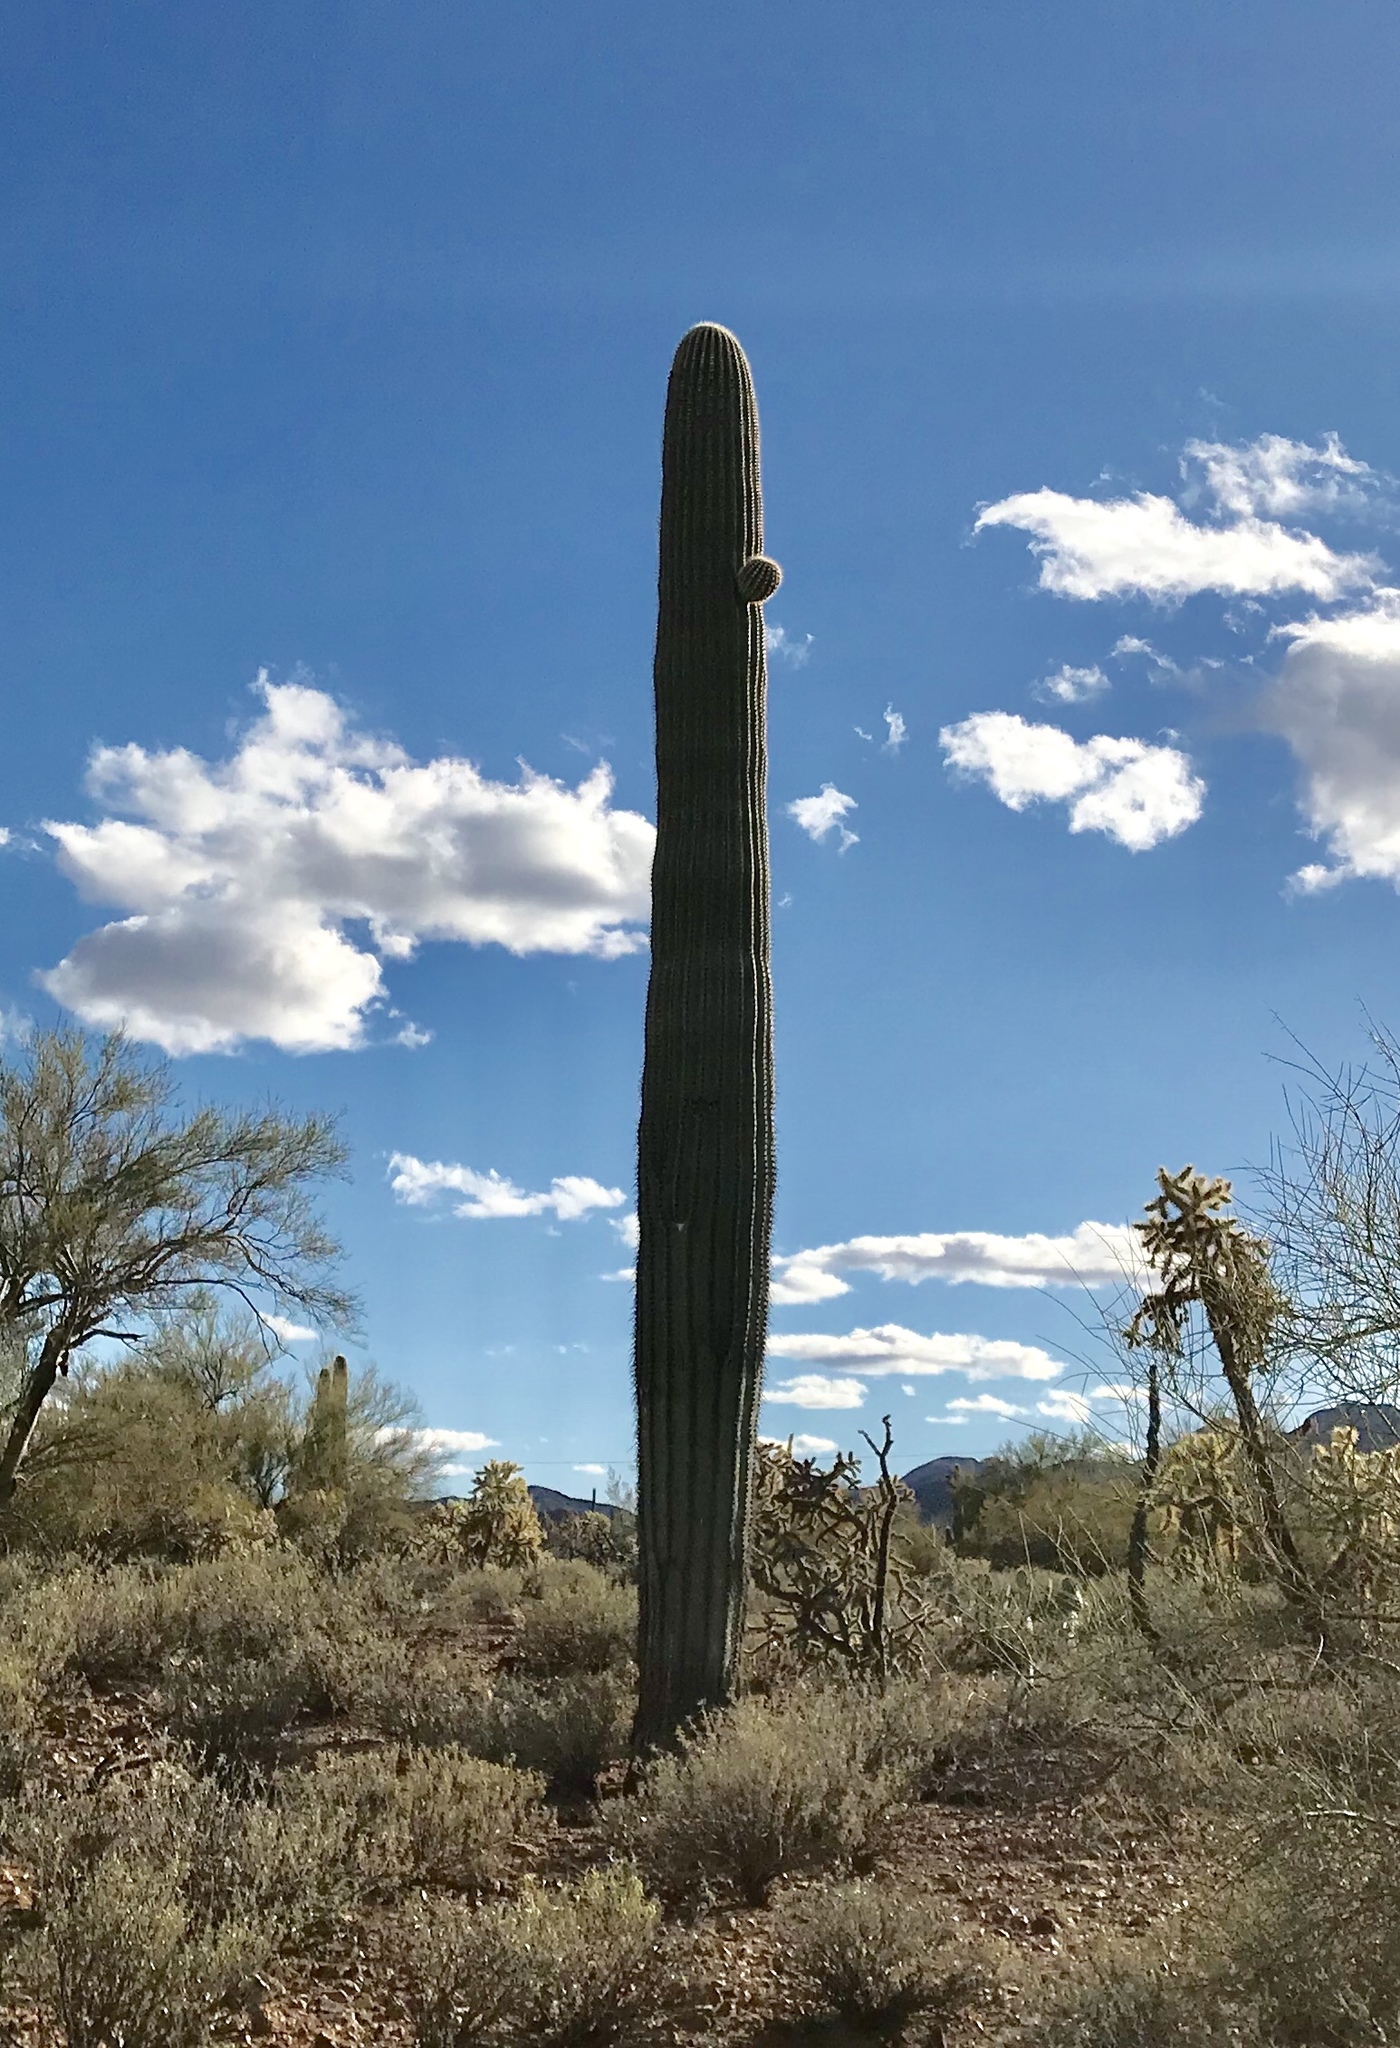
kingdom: Plantae
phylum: Tracheophyta
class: Magnoliopsida
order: Caryophyllales
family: Cactaceae
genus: Carnegiea
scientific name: Carnegiea gigantea
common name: Saguaro
